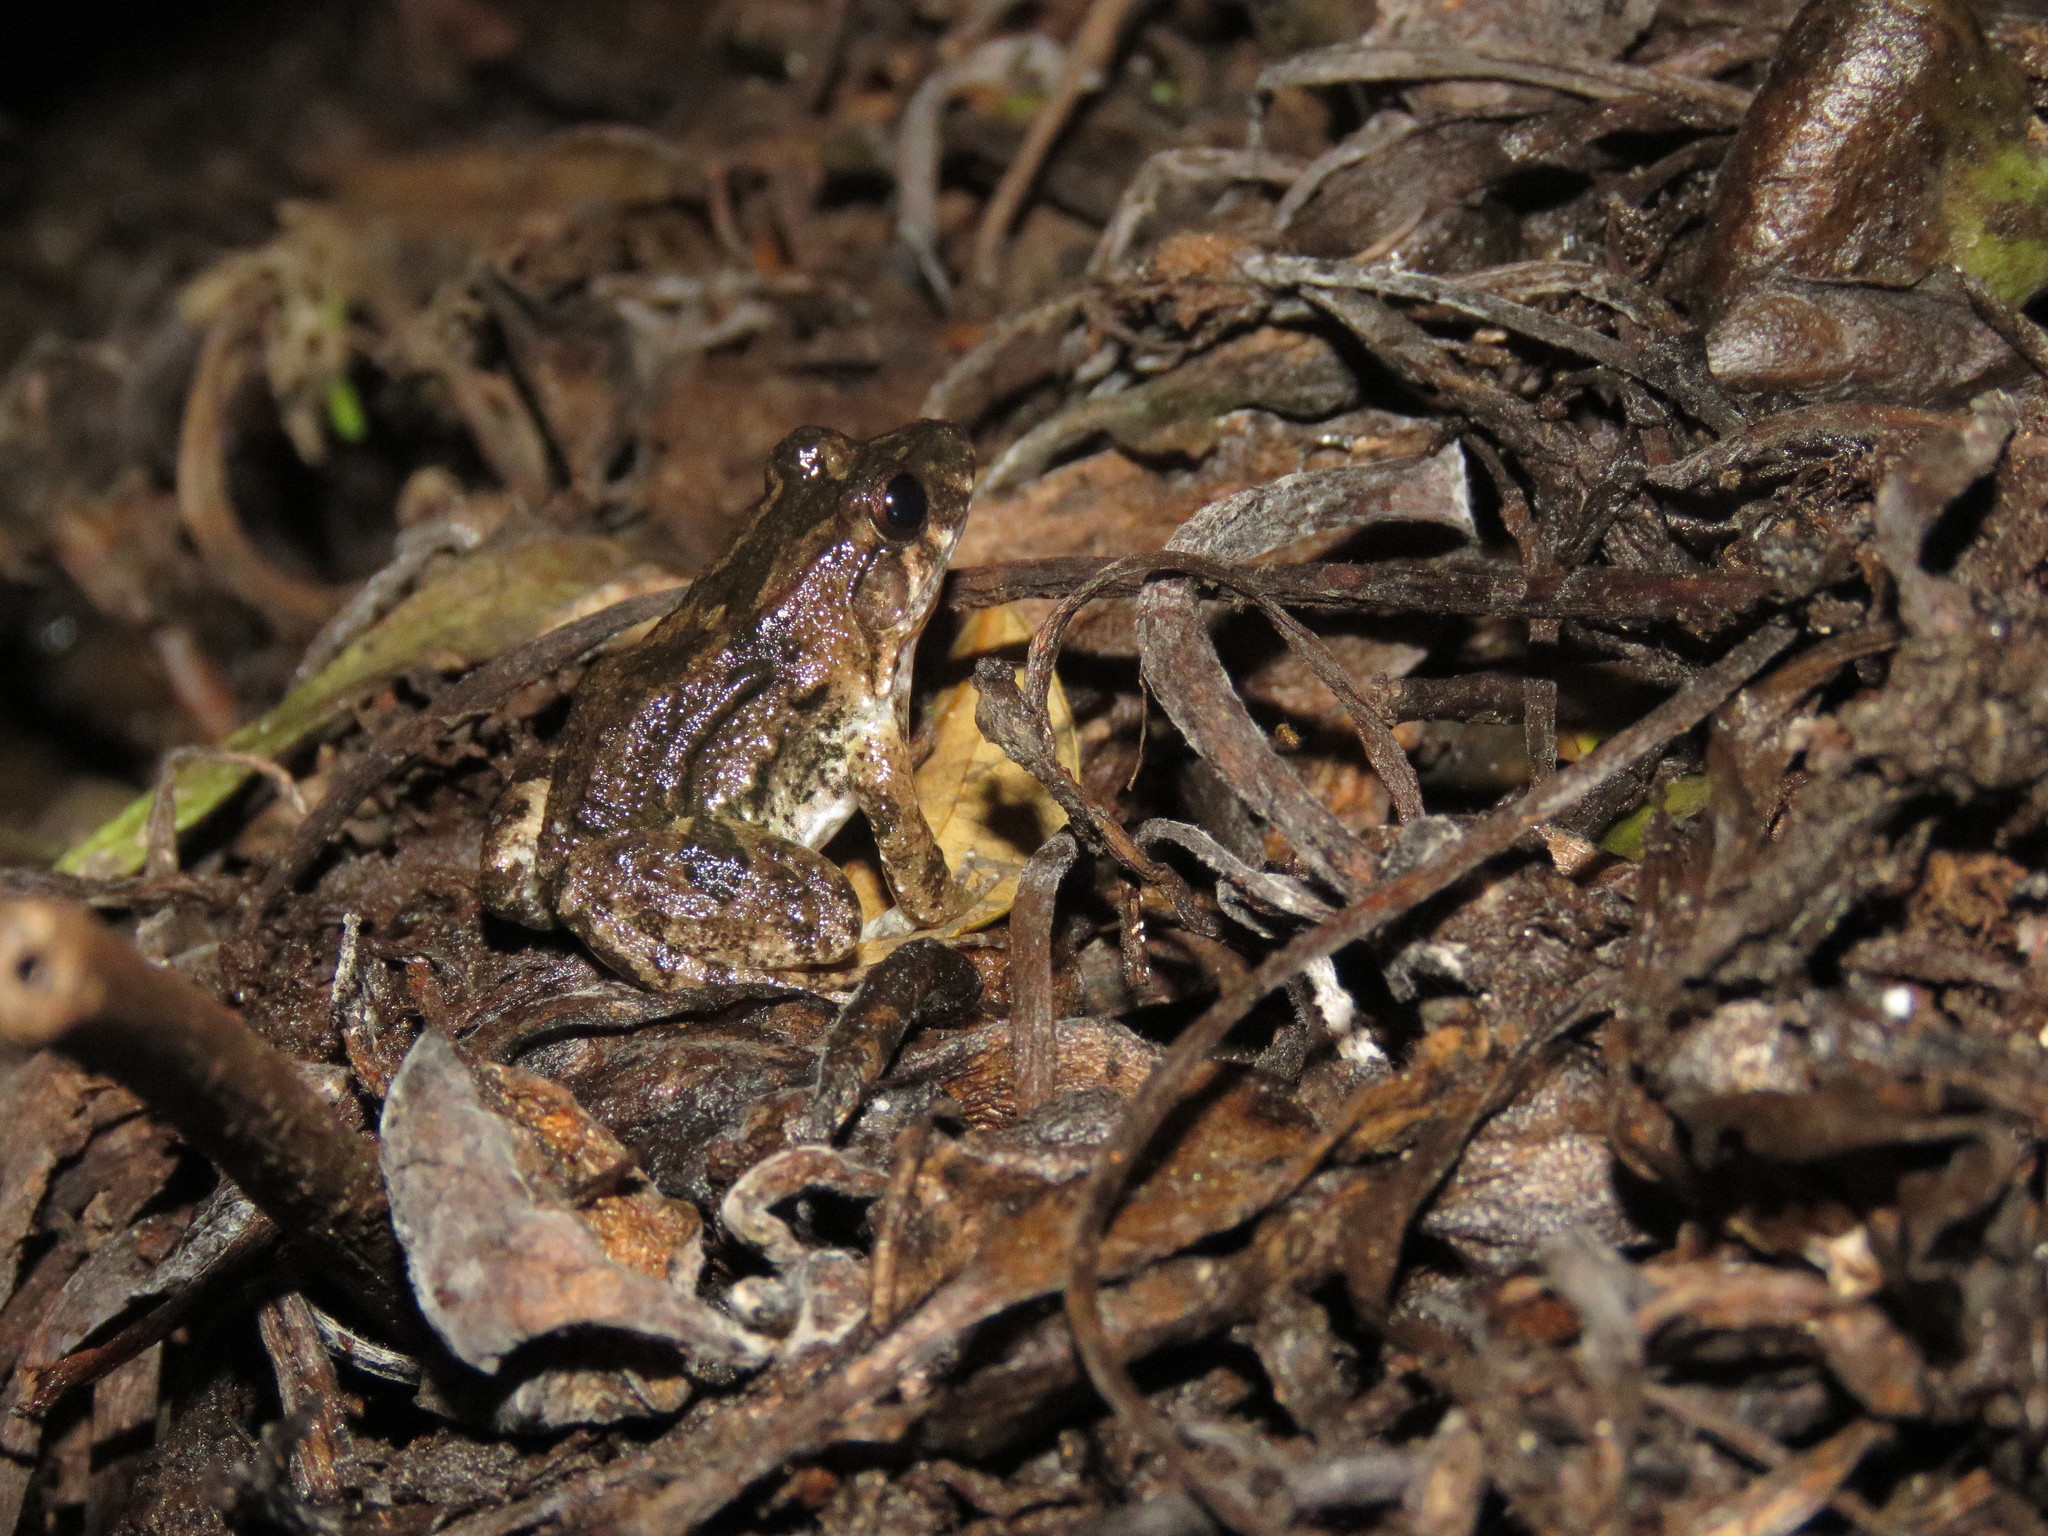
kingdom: Animalia
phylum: Chordata
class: Amphibia
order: Anura
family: Leptodactylidae
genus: Leptodactylus
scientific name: Leptodactylus petersii
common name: Peters' thin-toed frog
